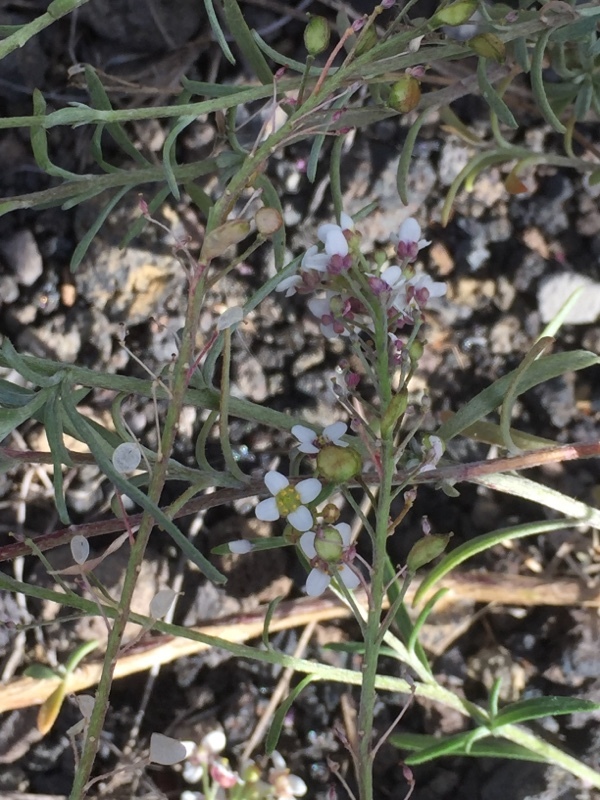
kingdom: Plantae
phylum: Tracheophyta
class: Magnoliopsida
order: Brassicales
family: Brassicaceae
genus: Lobularia
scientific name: Lobularia maritima
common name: Sweet alison
